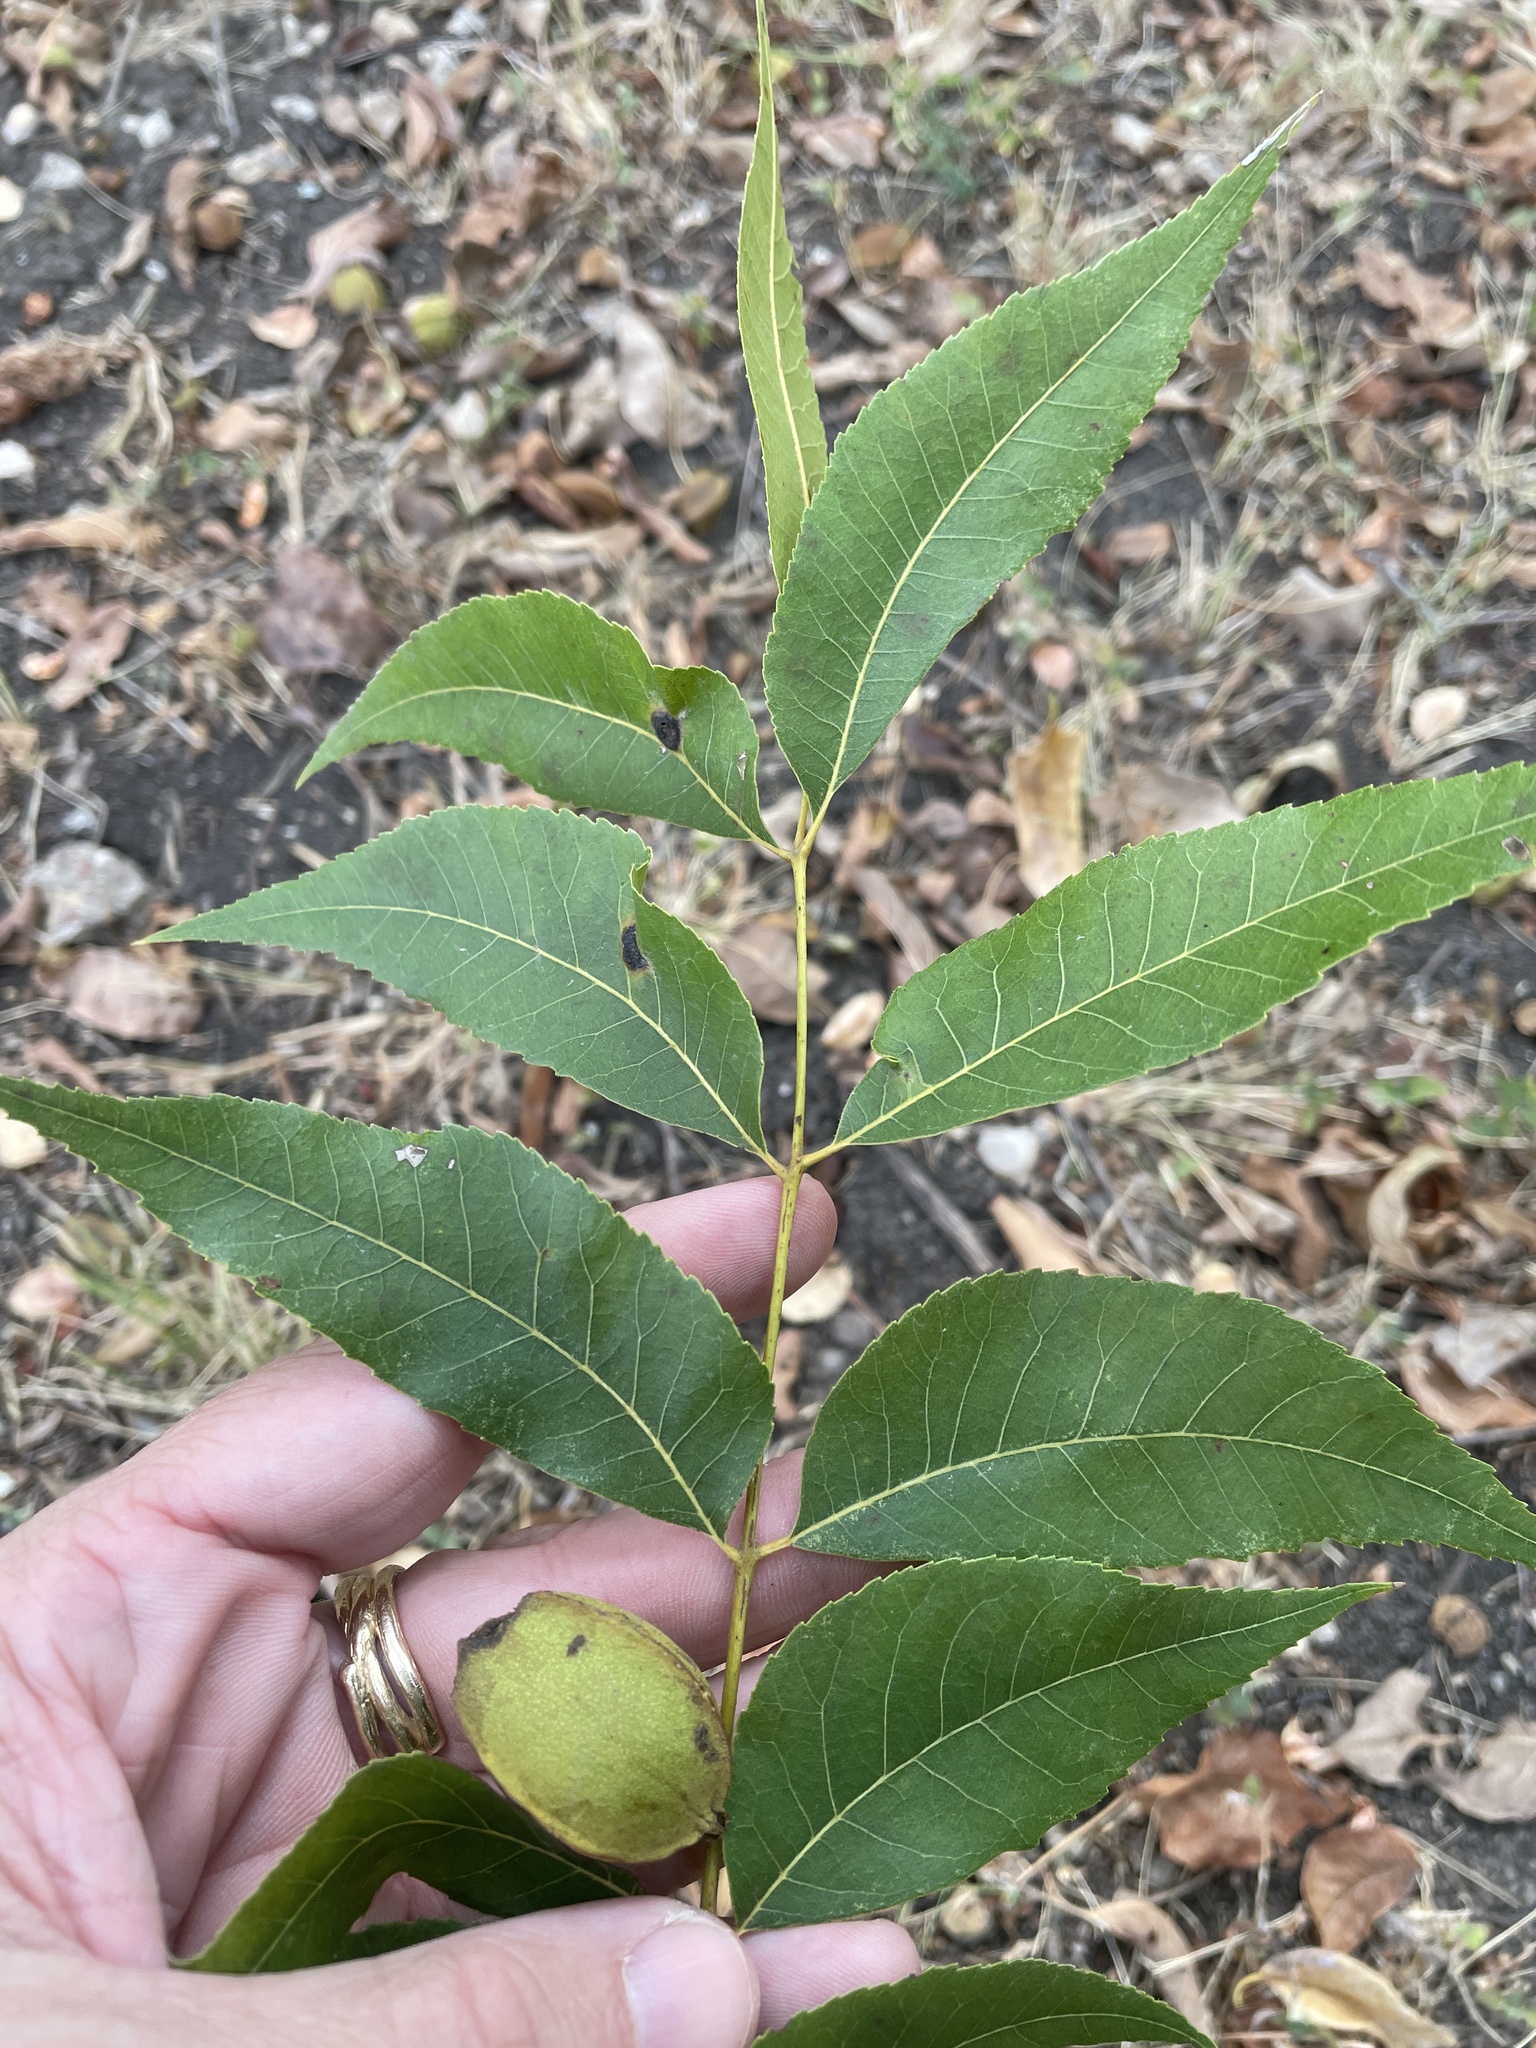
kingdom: Plantae
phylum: Tracheophyta
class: Magnoliopsida
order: Fagales
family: Juglandaceae
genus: Carya
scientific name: Carya illinoinensis
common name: Pecan
